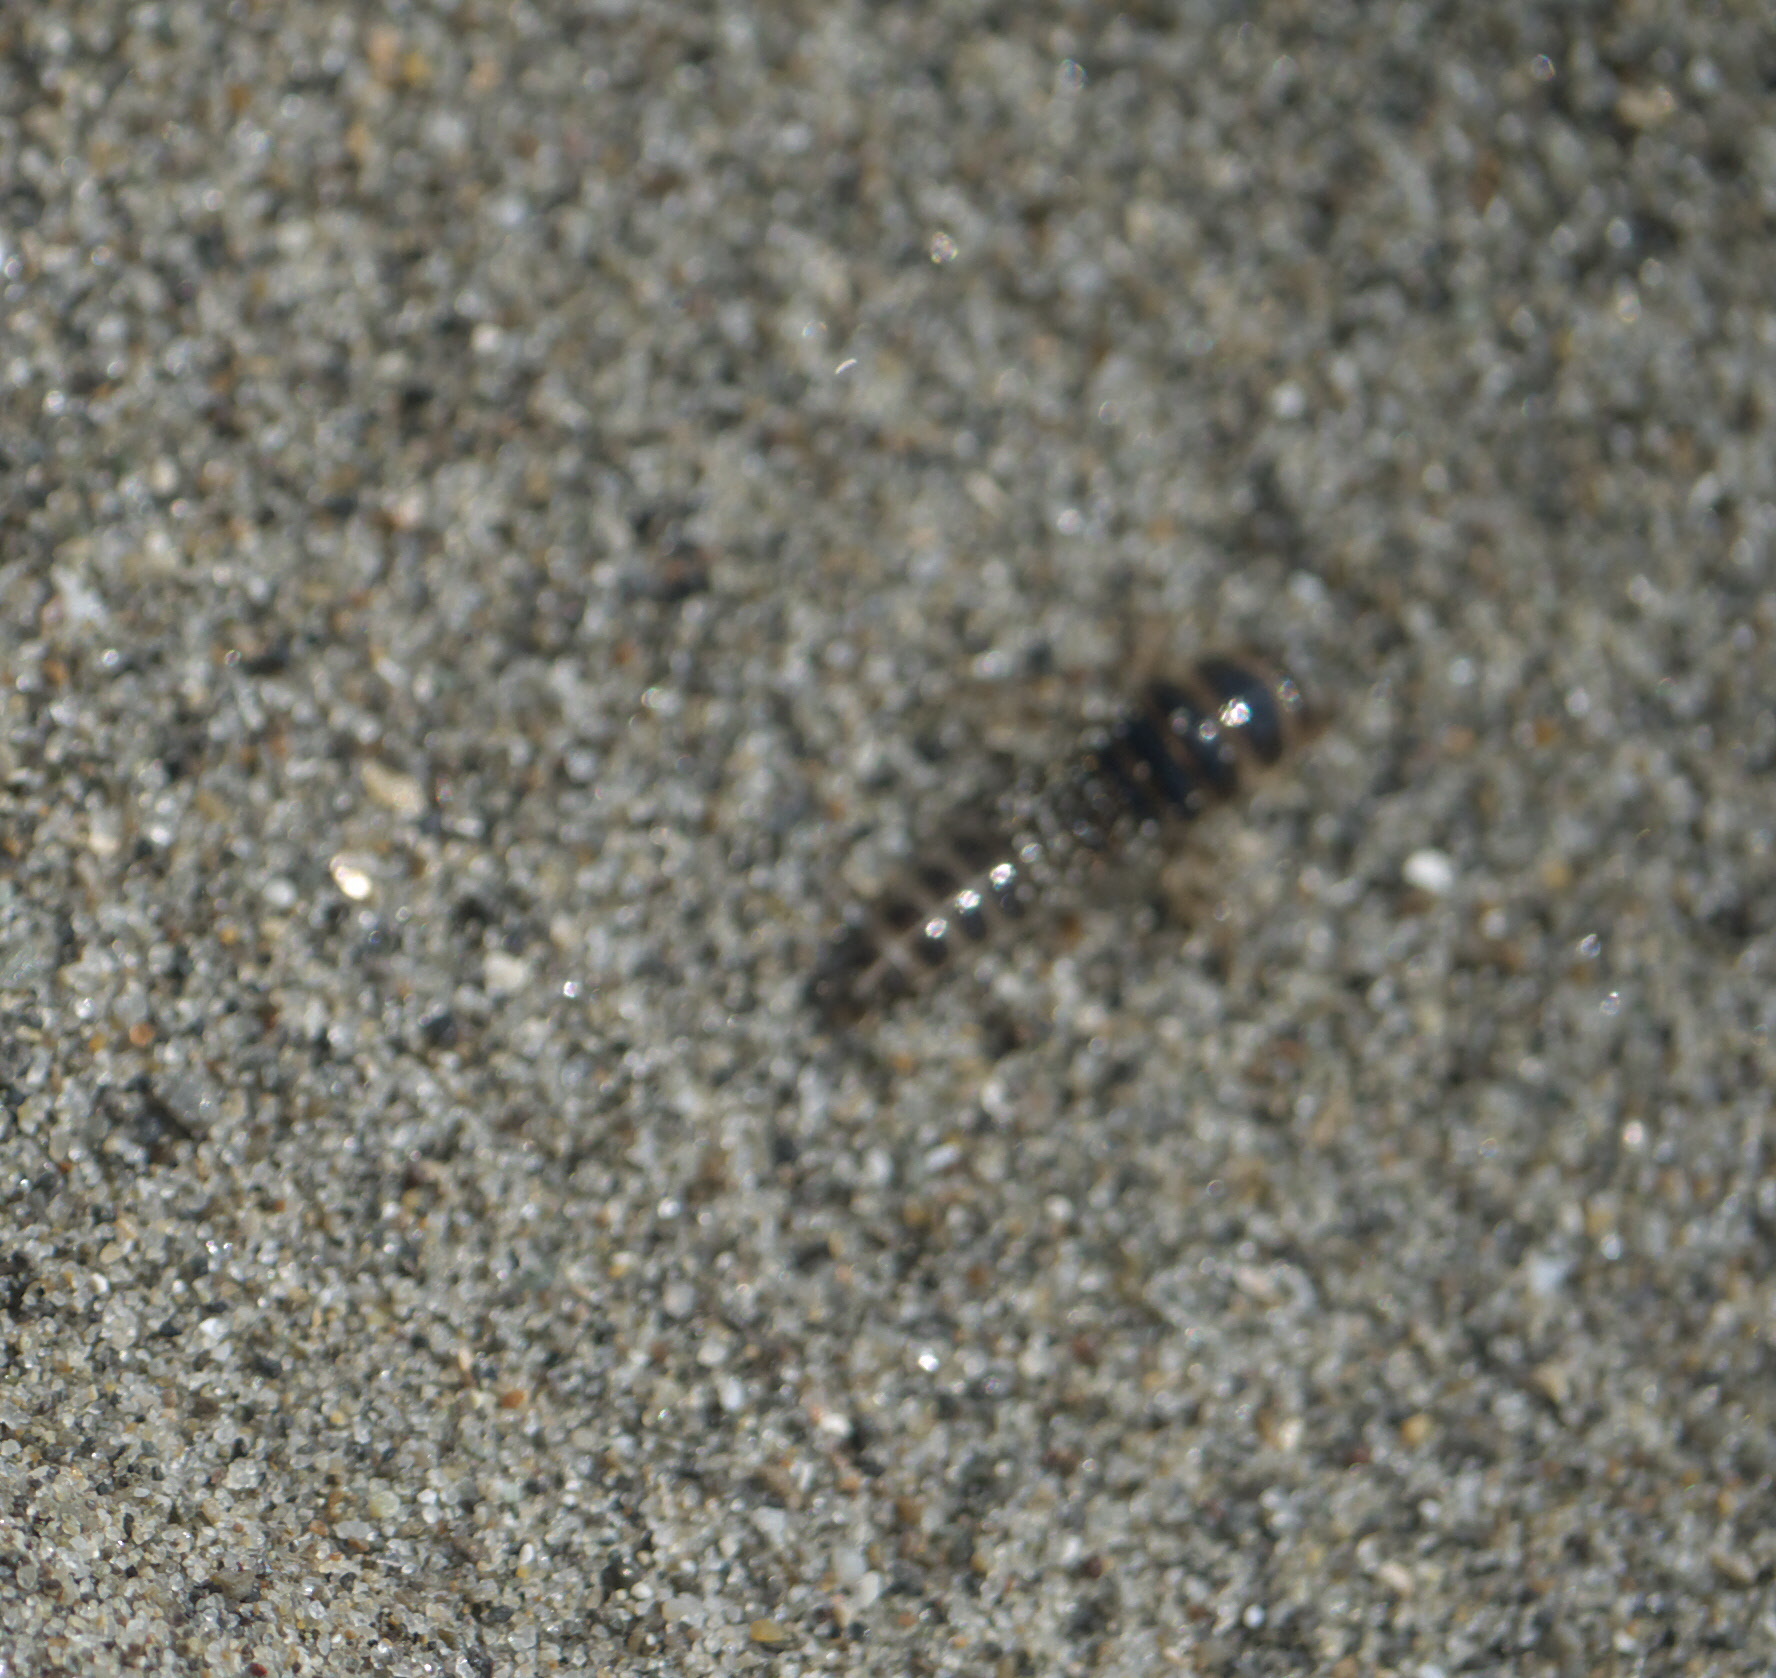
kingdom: Animalia
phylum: Arthropoda
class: Insecta
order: Coleoptera
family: Staphylinidae
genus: Thinopinus
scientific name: Thinopinus pictus
